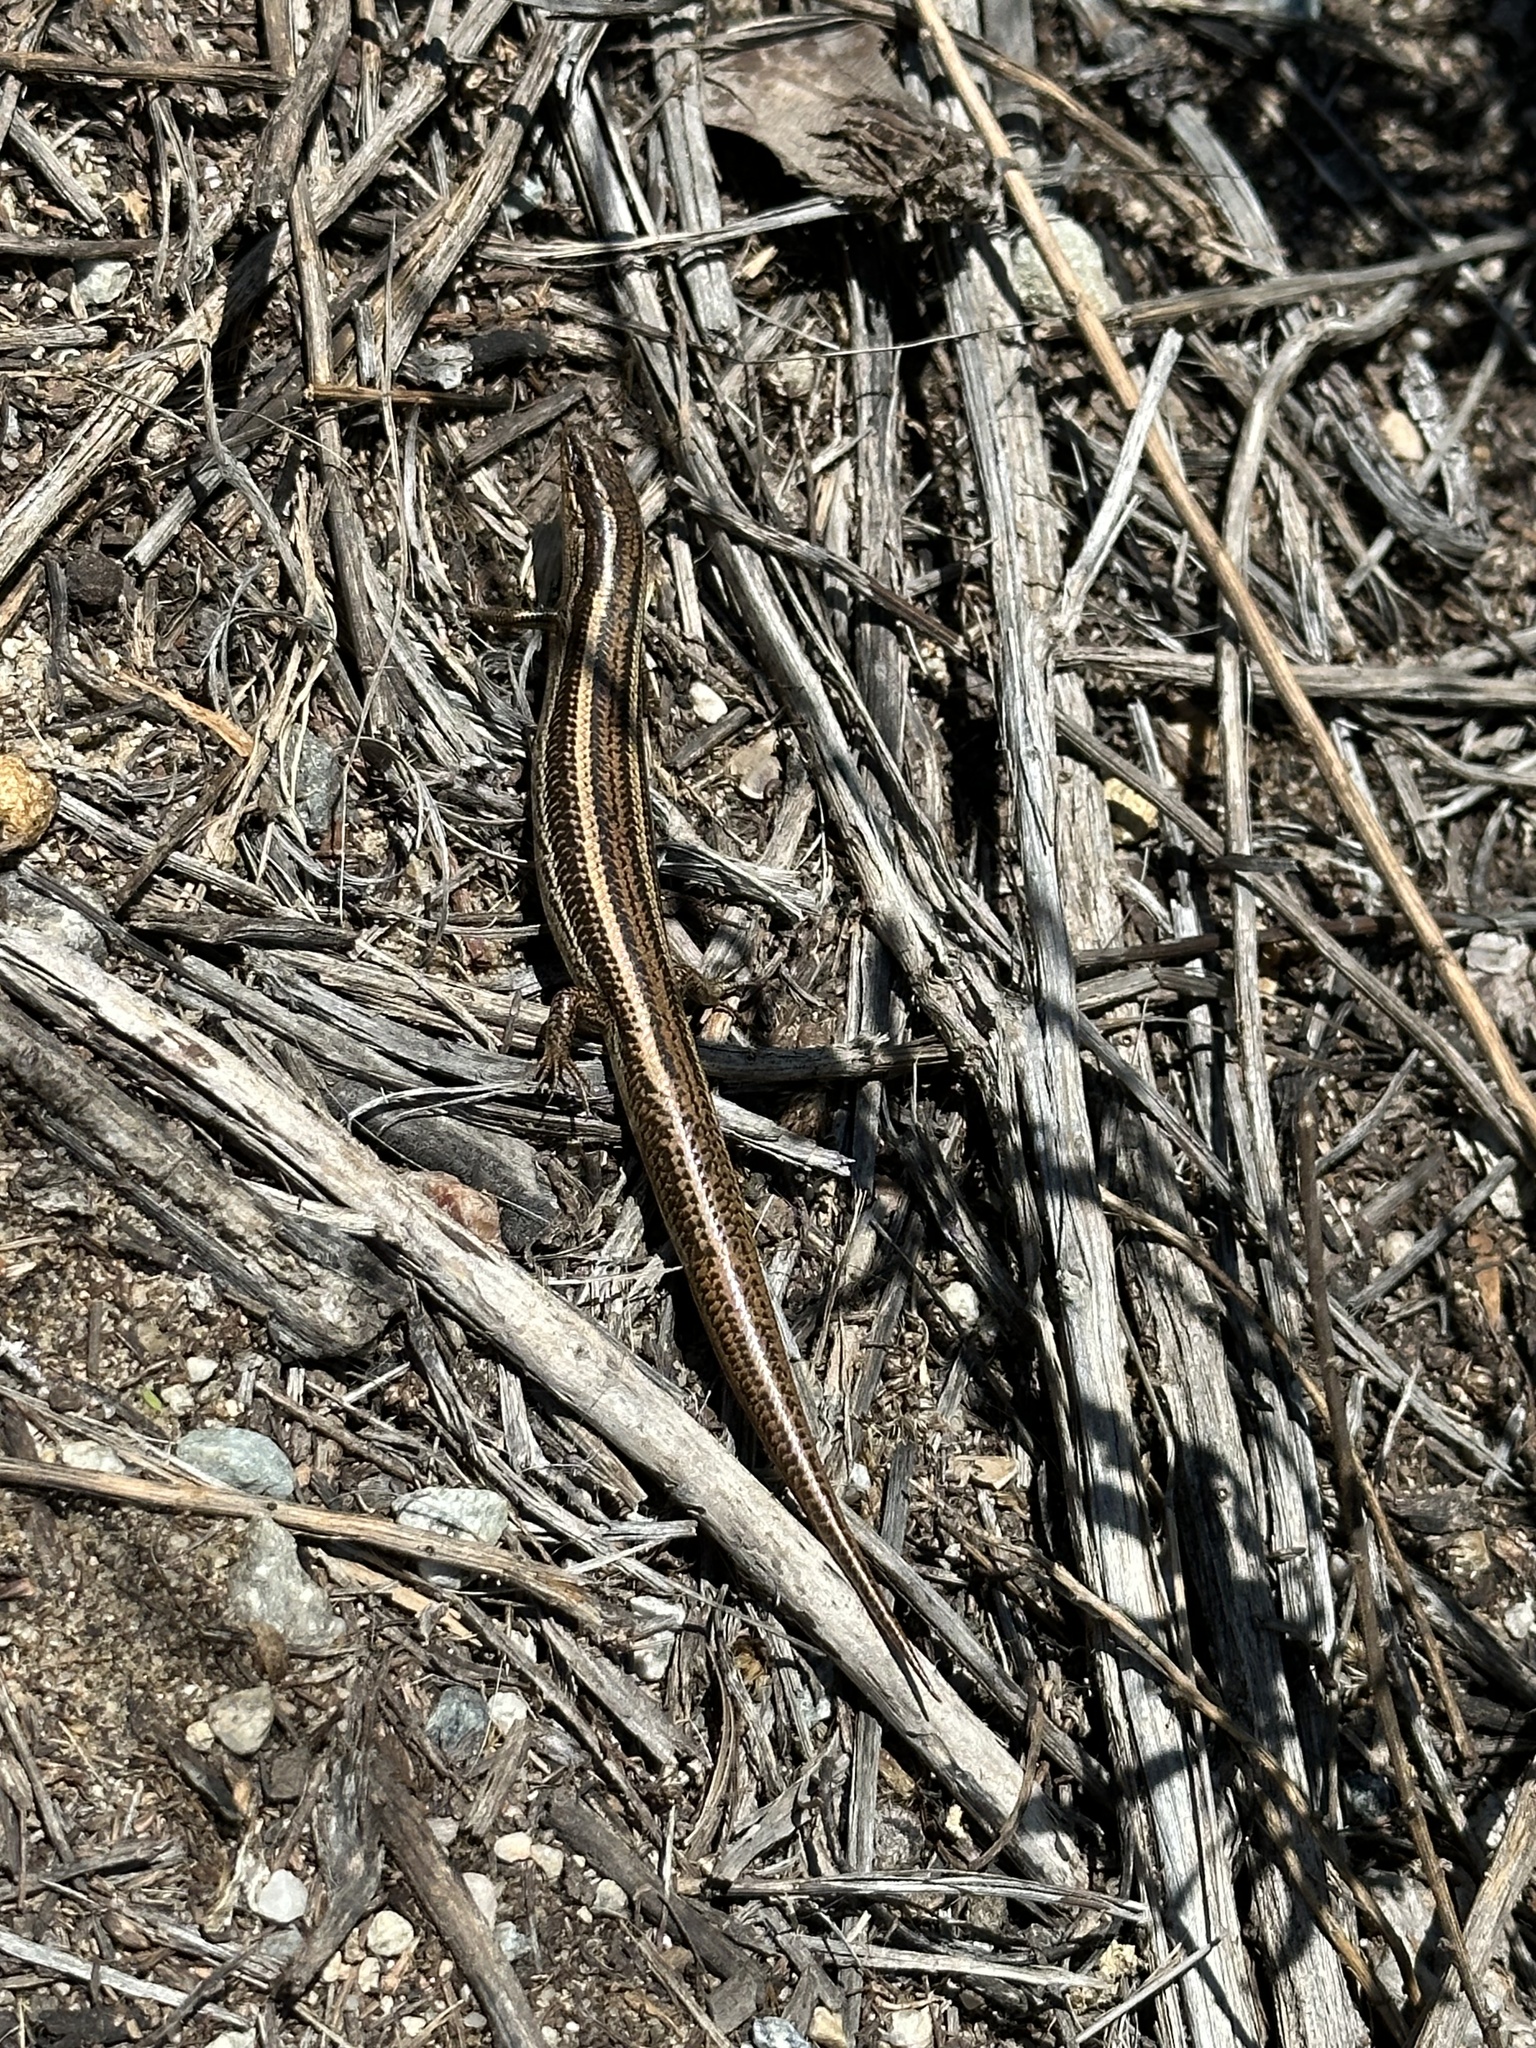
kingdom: Animalia
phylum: Chordata
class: Squamata
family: Scincidae
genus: Plestiodon
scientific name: Plestiodon skiltonianus
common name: Coronado island skink [interparietalis]
